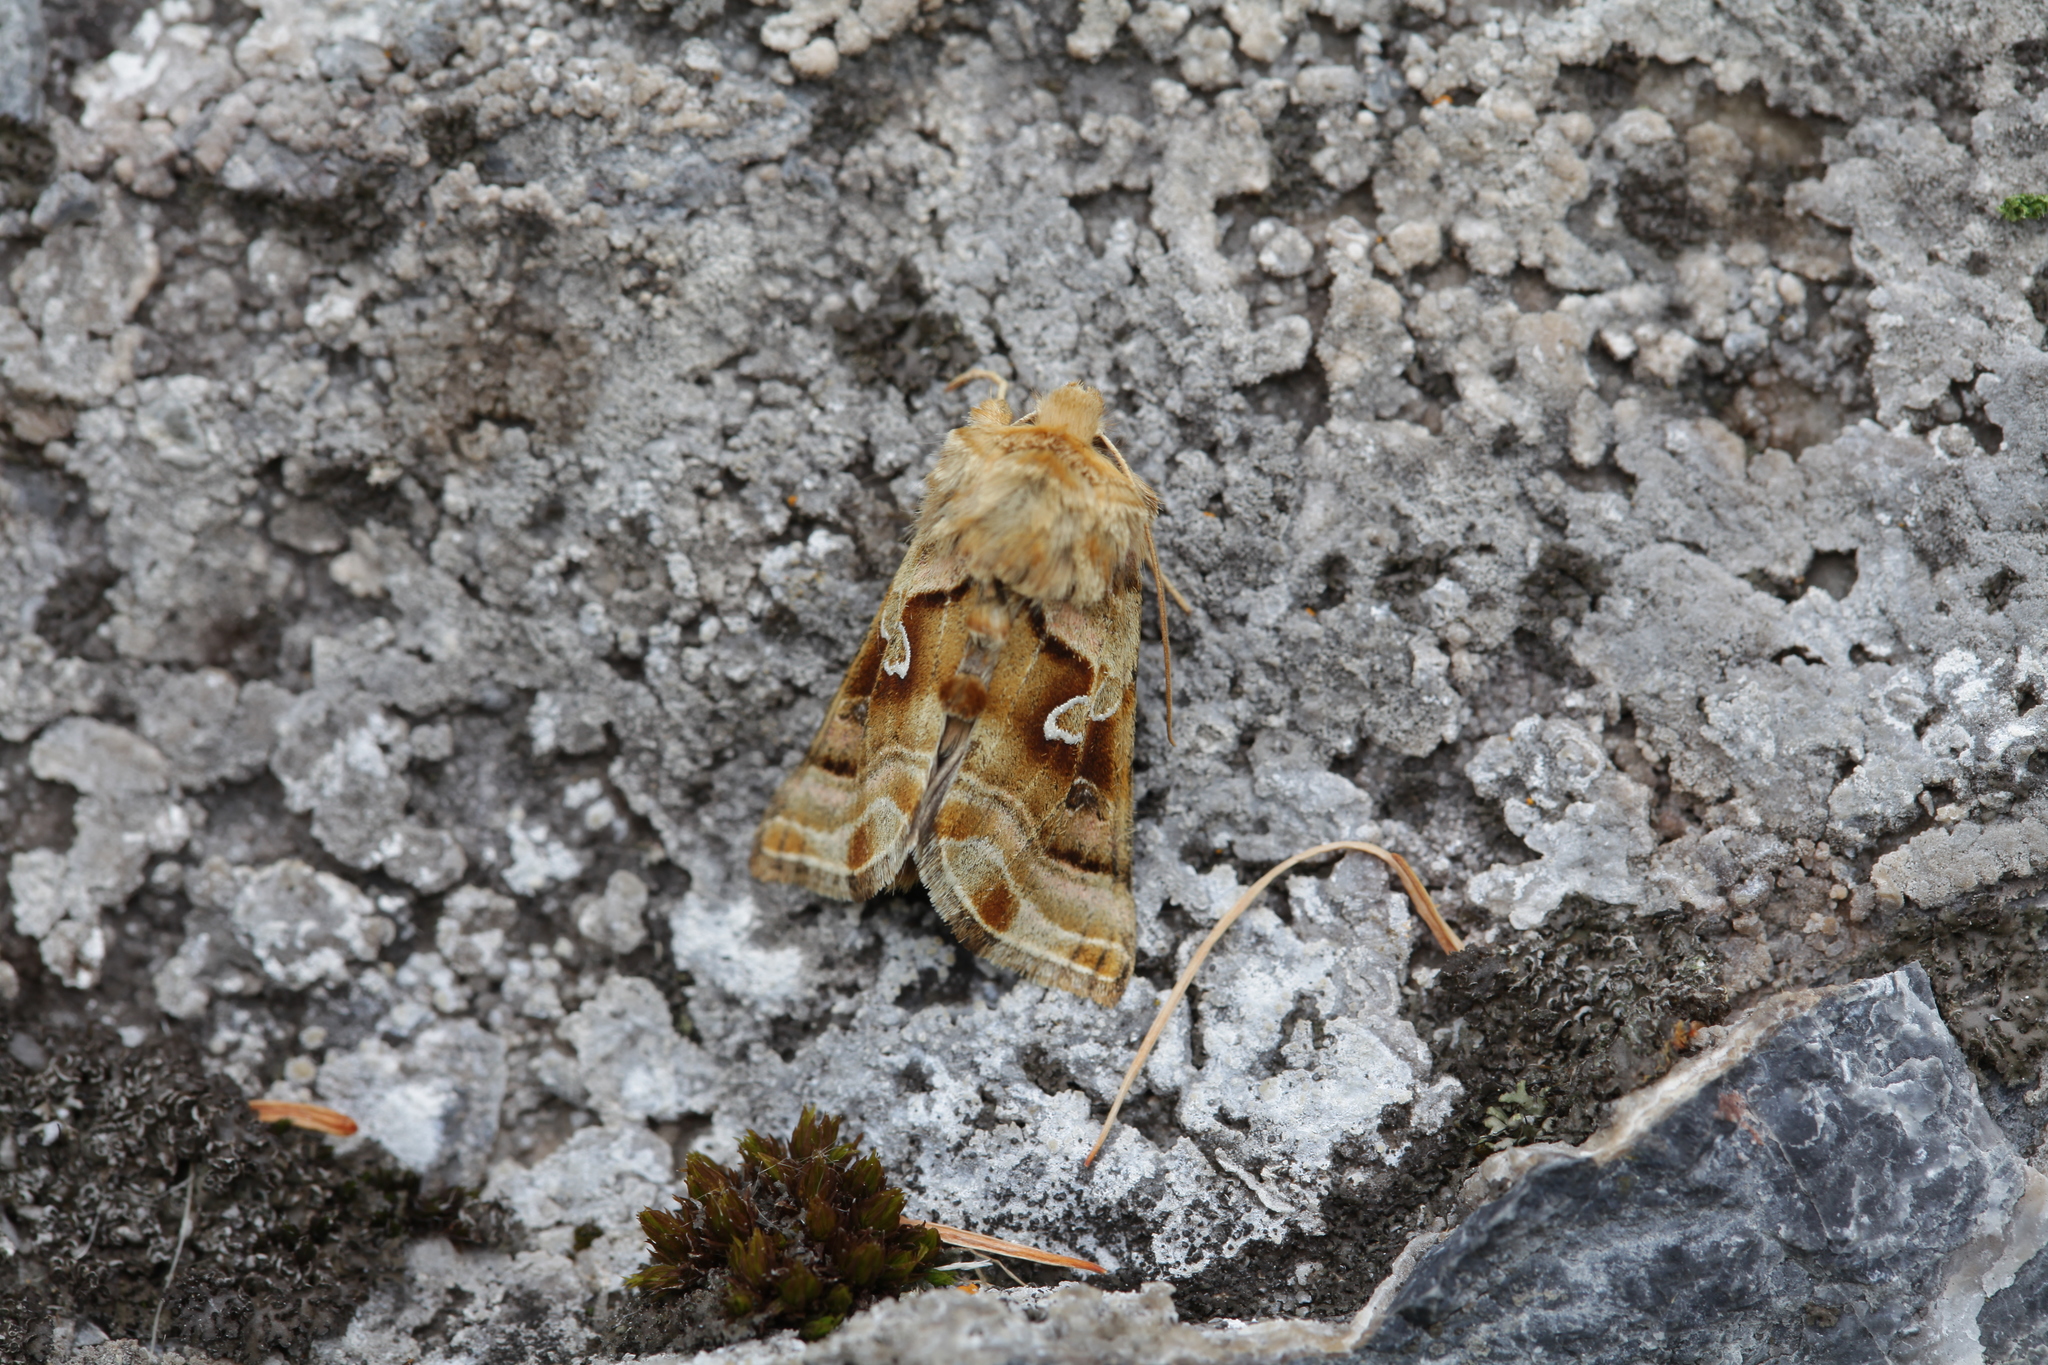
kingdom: Animalia
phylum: Arthropoda
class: Insecta
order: Lepidoptera
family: Noctuidae
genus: Euchalcia
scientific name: Euchalcia renardi
